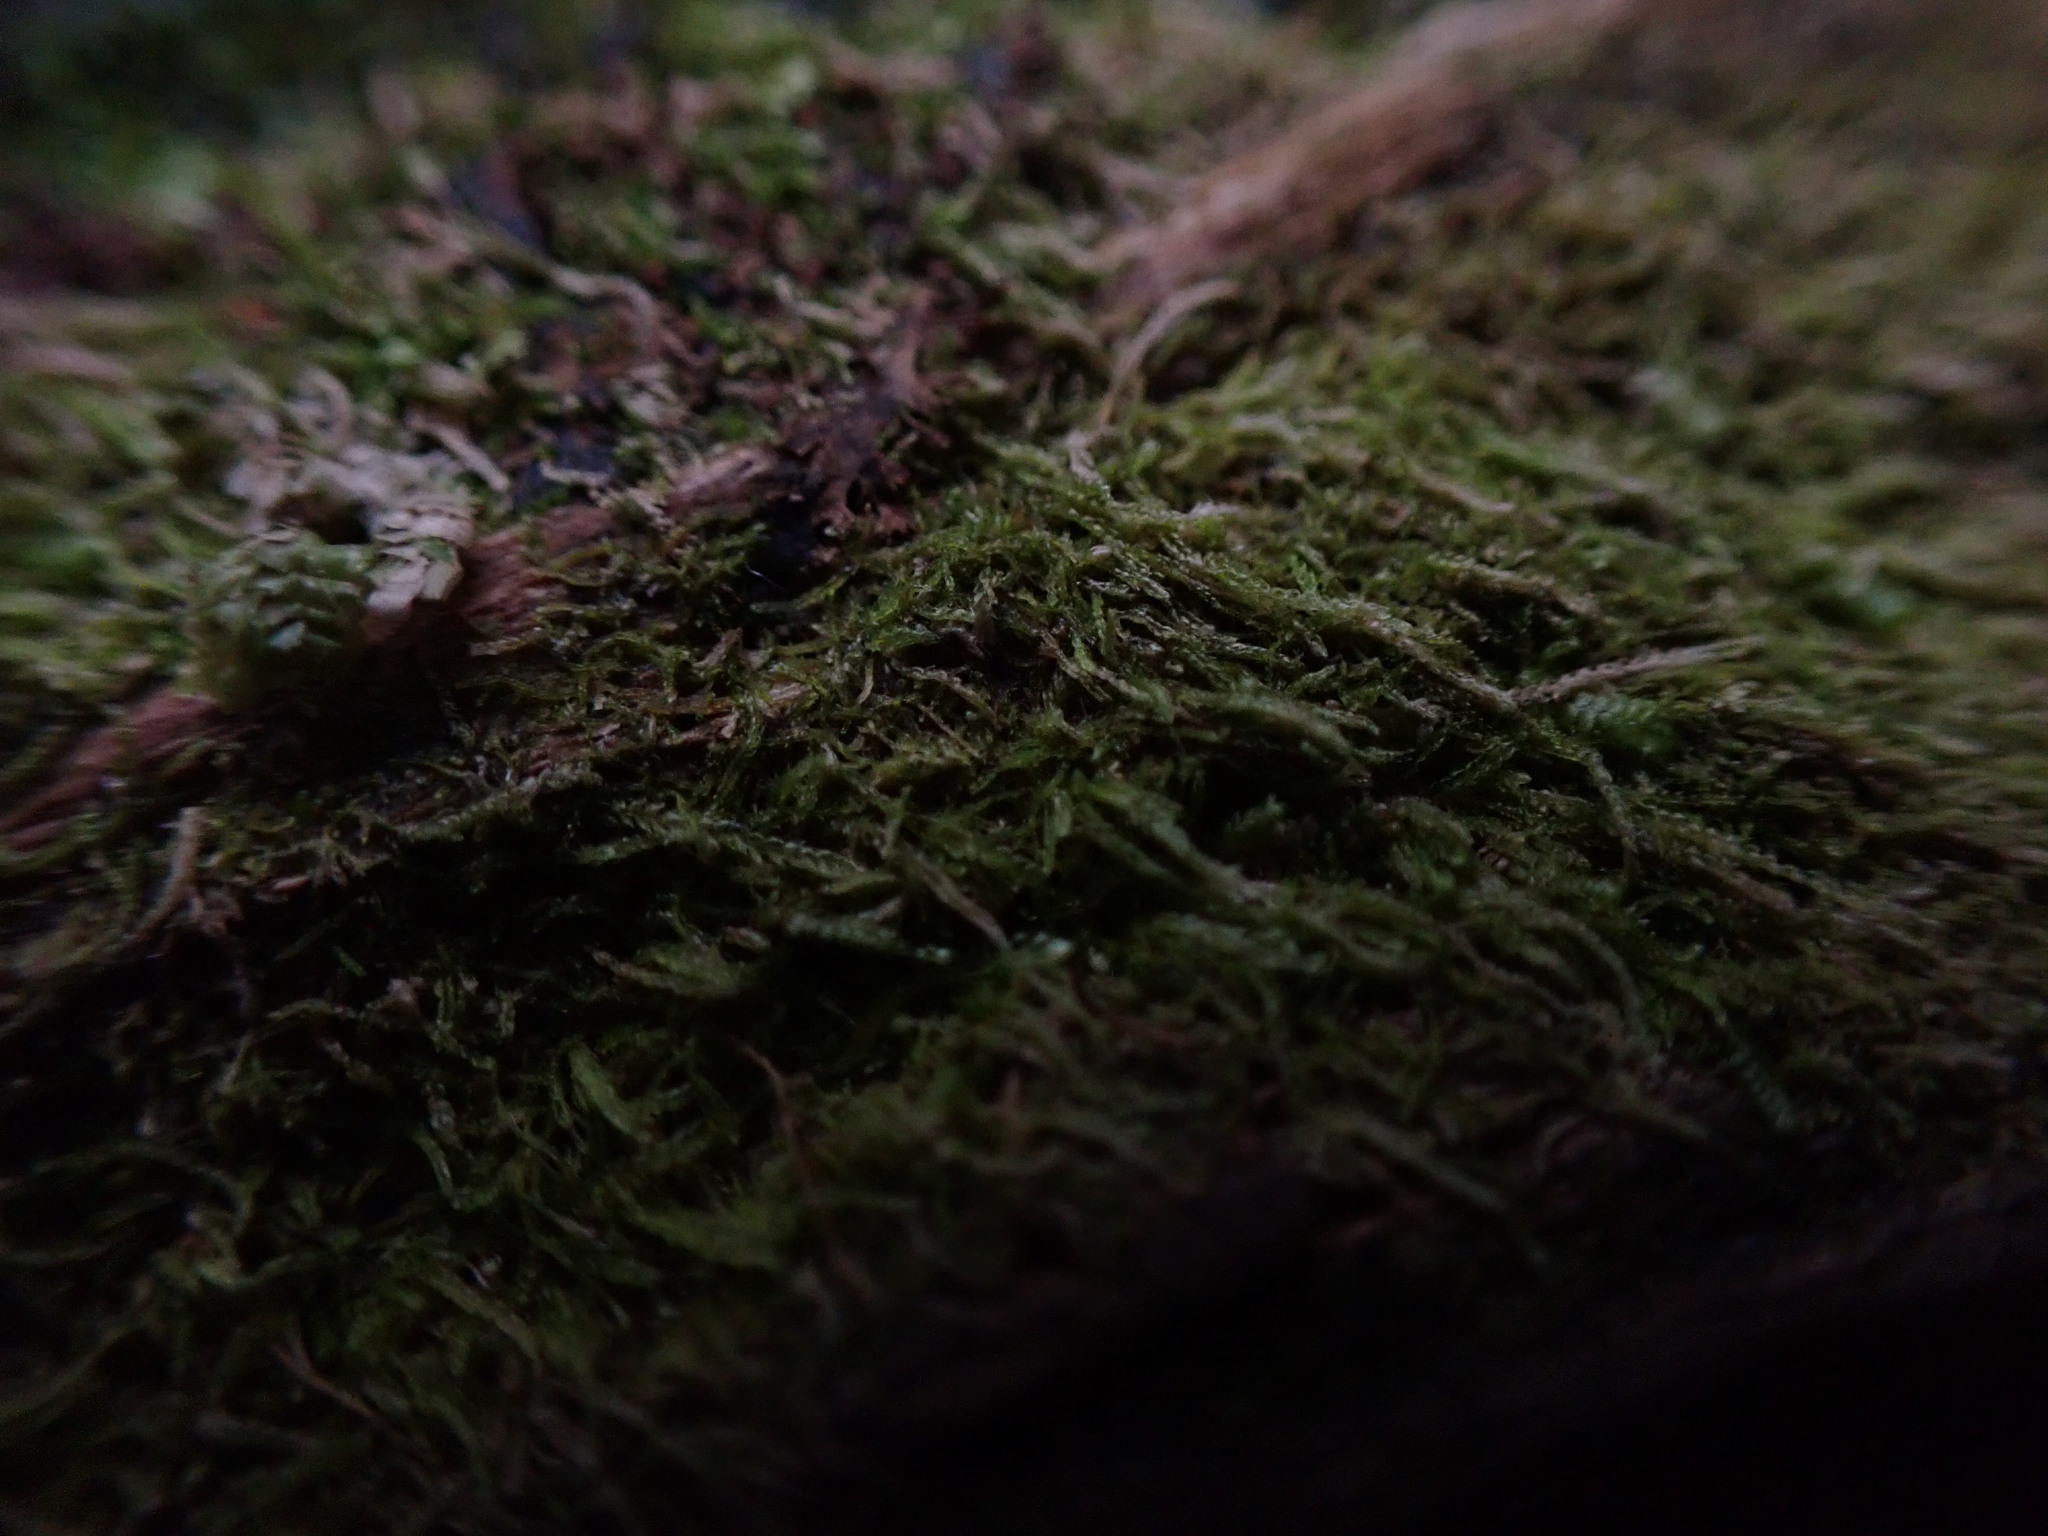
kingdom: Plantae
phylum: Marchantiophyta
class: Jungermanniopsida
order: Jungermanniales
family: Cephaloziaceae
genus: Cephalozia
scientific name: Cephalozia bicuspidata
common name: Two-horned pincerwort
